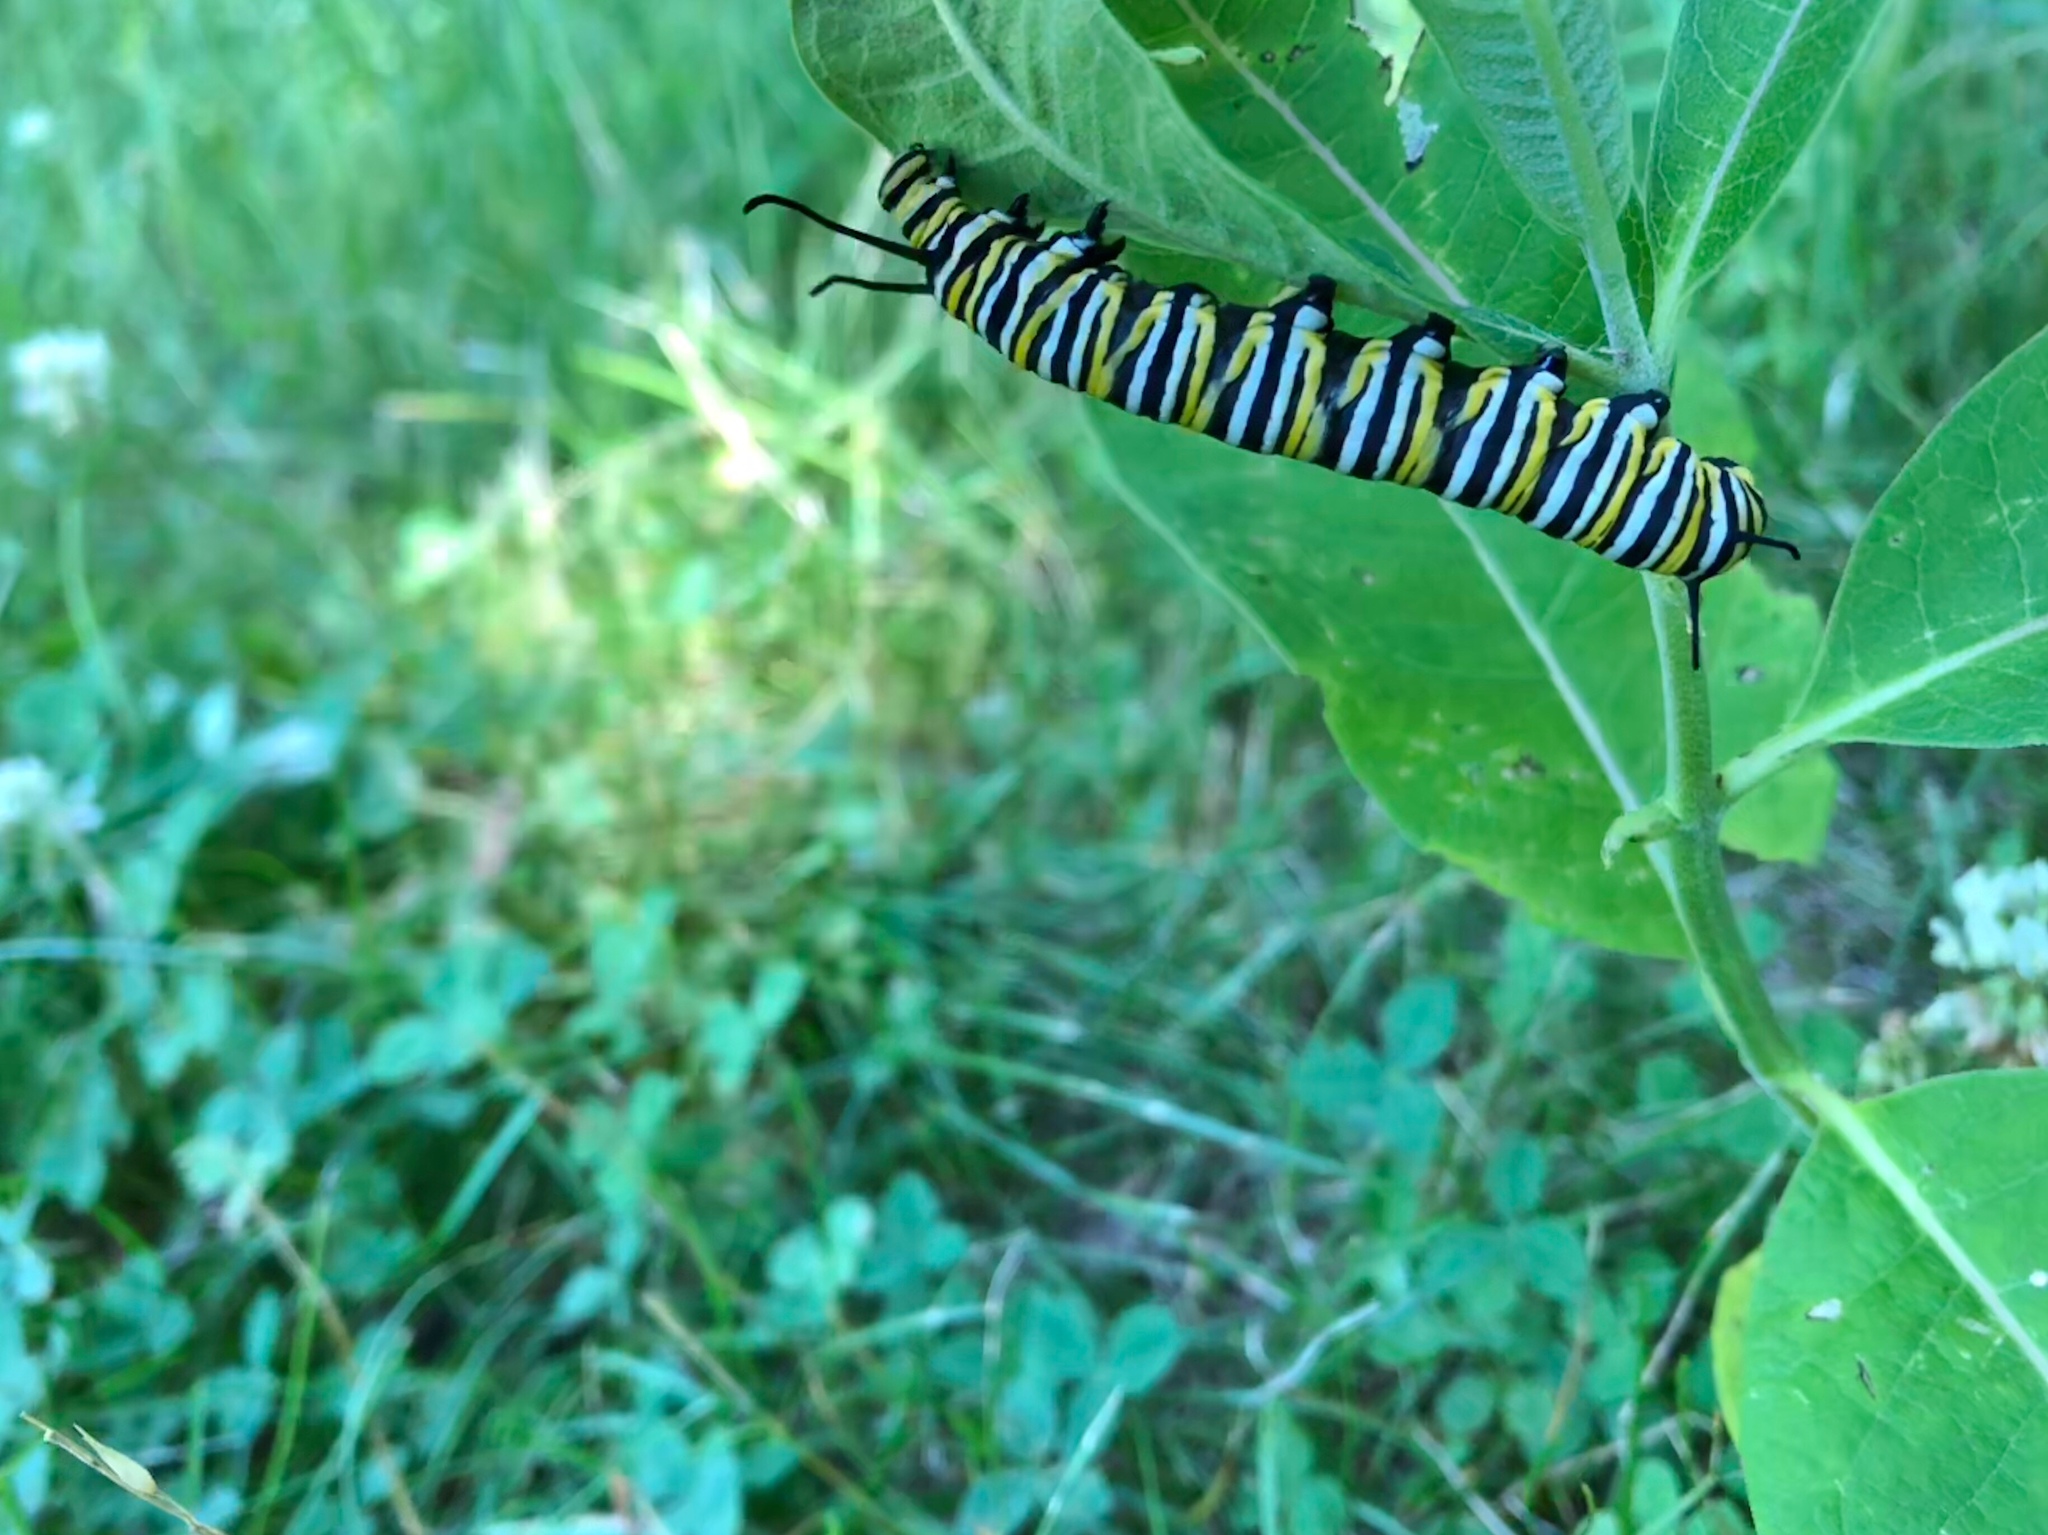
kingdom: Animalia
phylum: Arthropoda
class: Insecta
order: Lepidoptera
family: Nymphalidae
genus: Danaus
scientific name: Danaus plexippus
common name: Monarch
